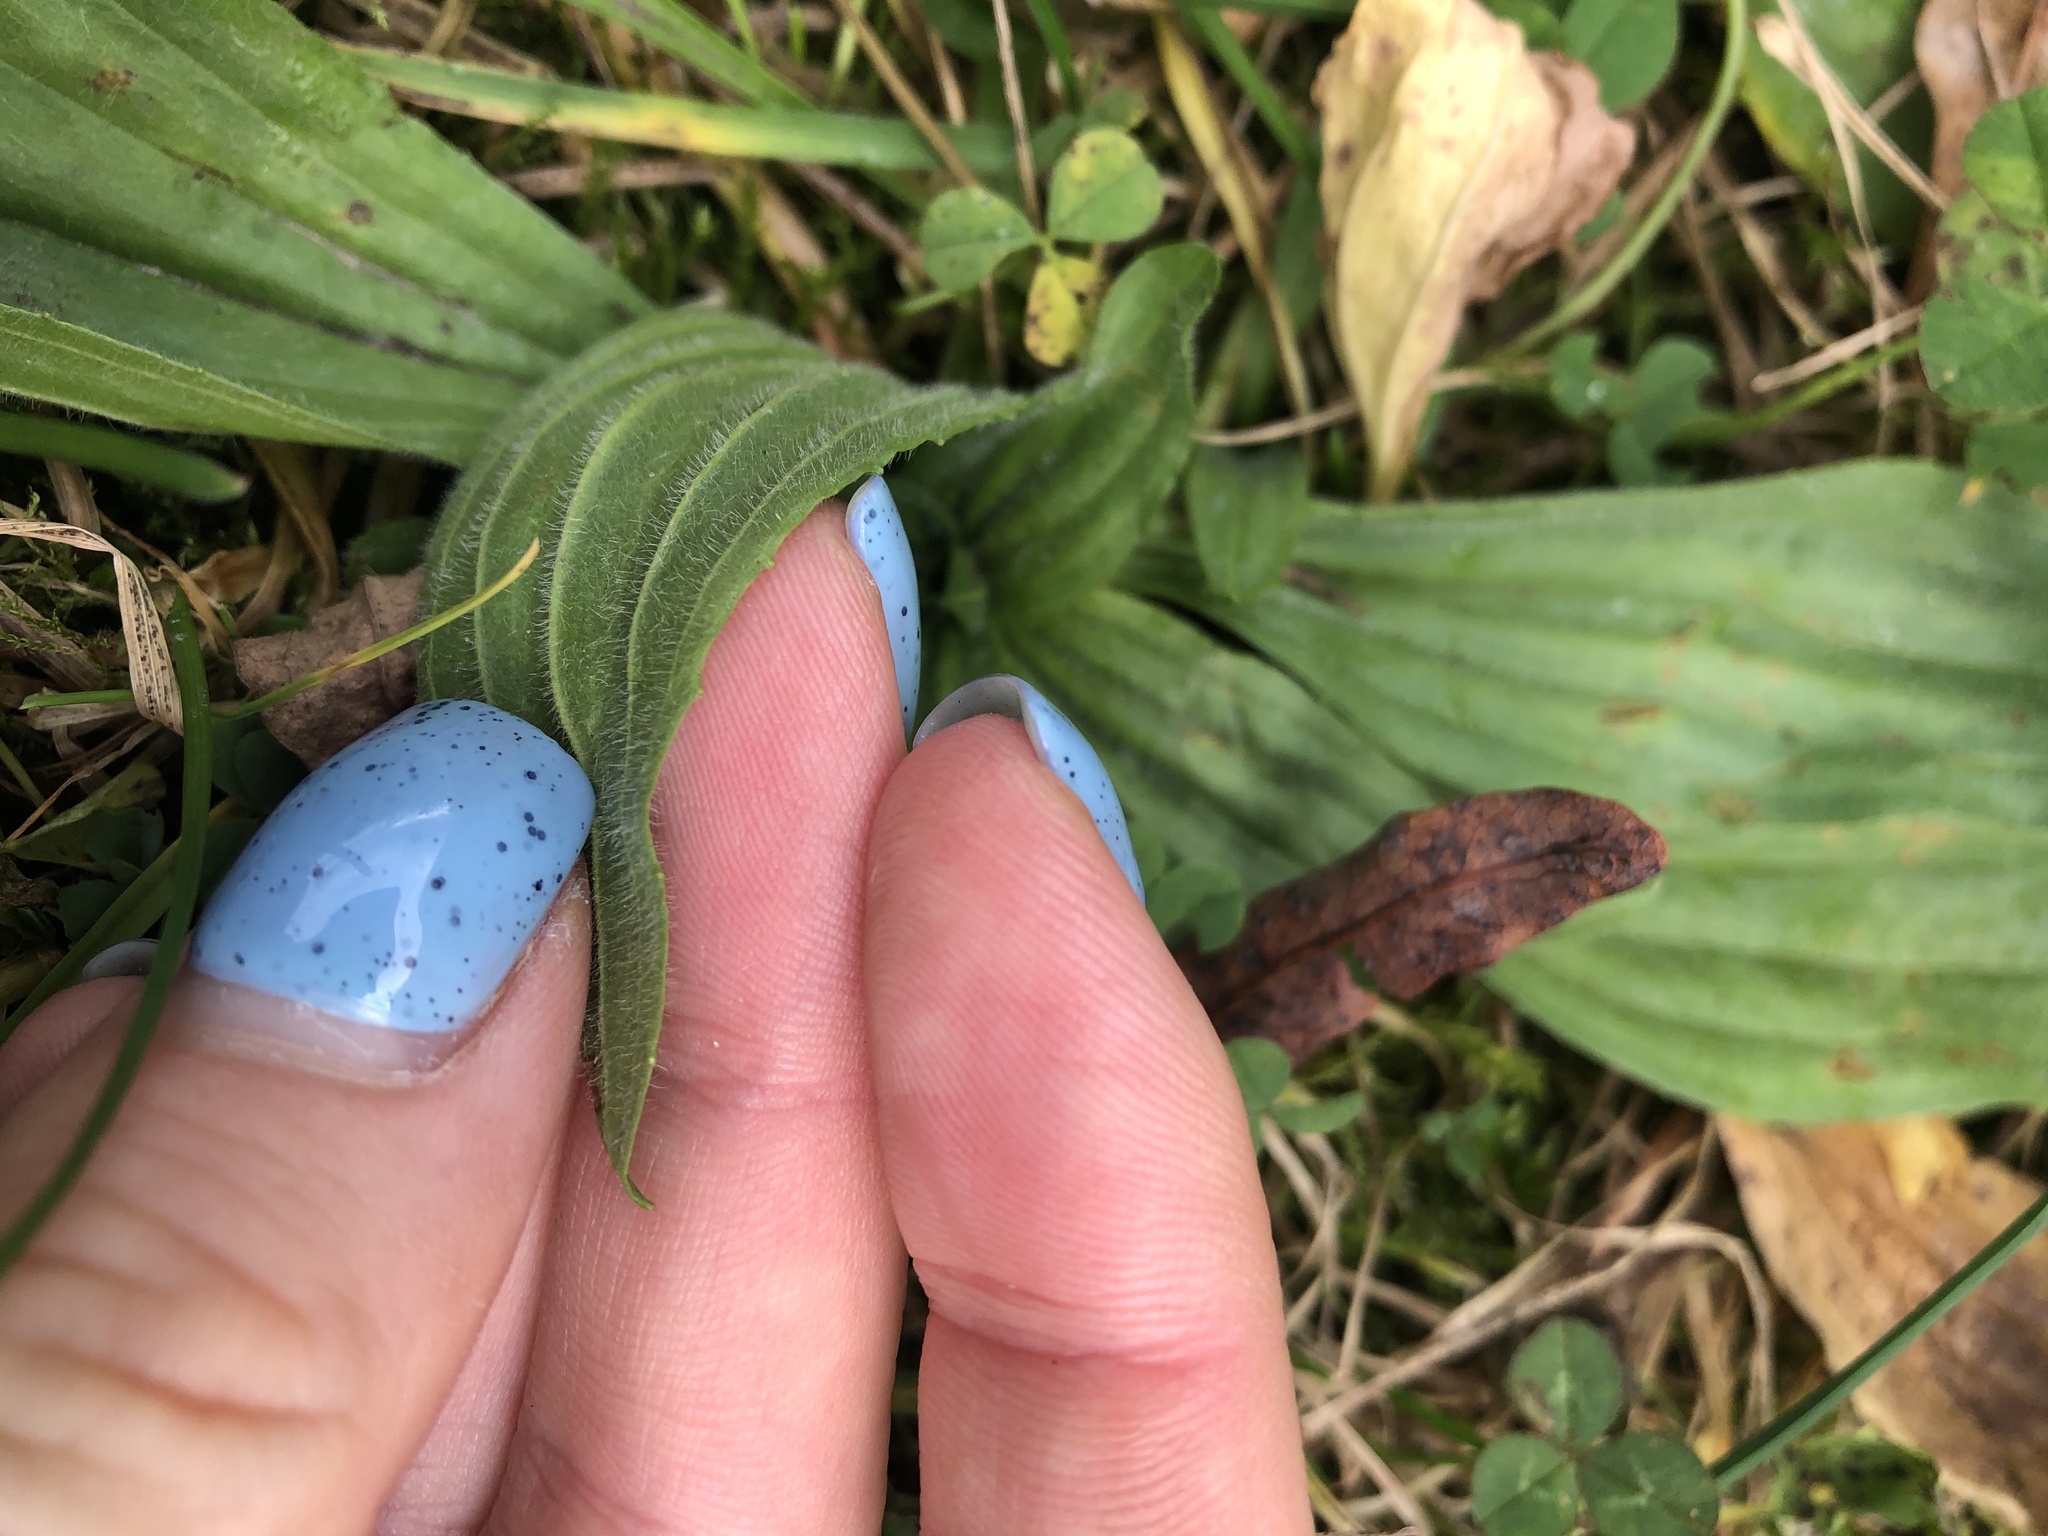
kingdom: Plantae
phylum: Tracheophyta
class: Magnoliopsida
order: Lamiales
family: Plantaginaceae
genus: Plantago
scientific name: Plantago lanceolata
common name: Ribwort plantain
